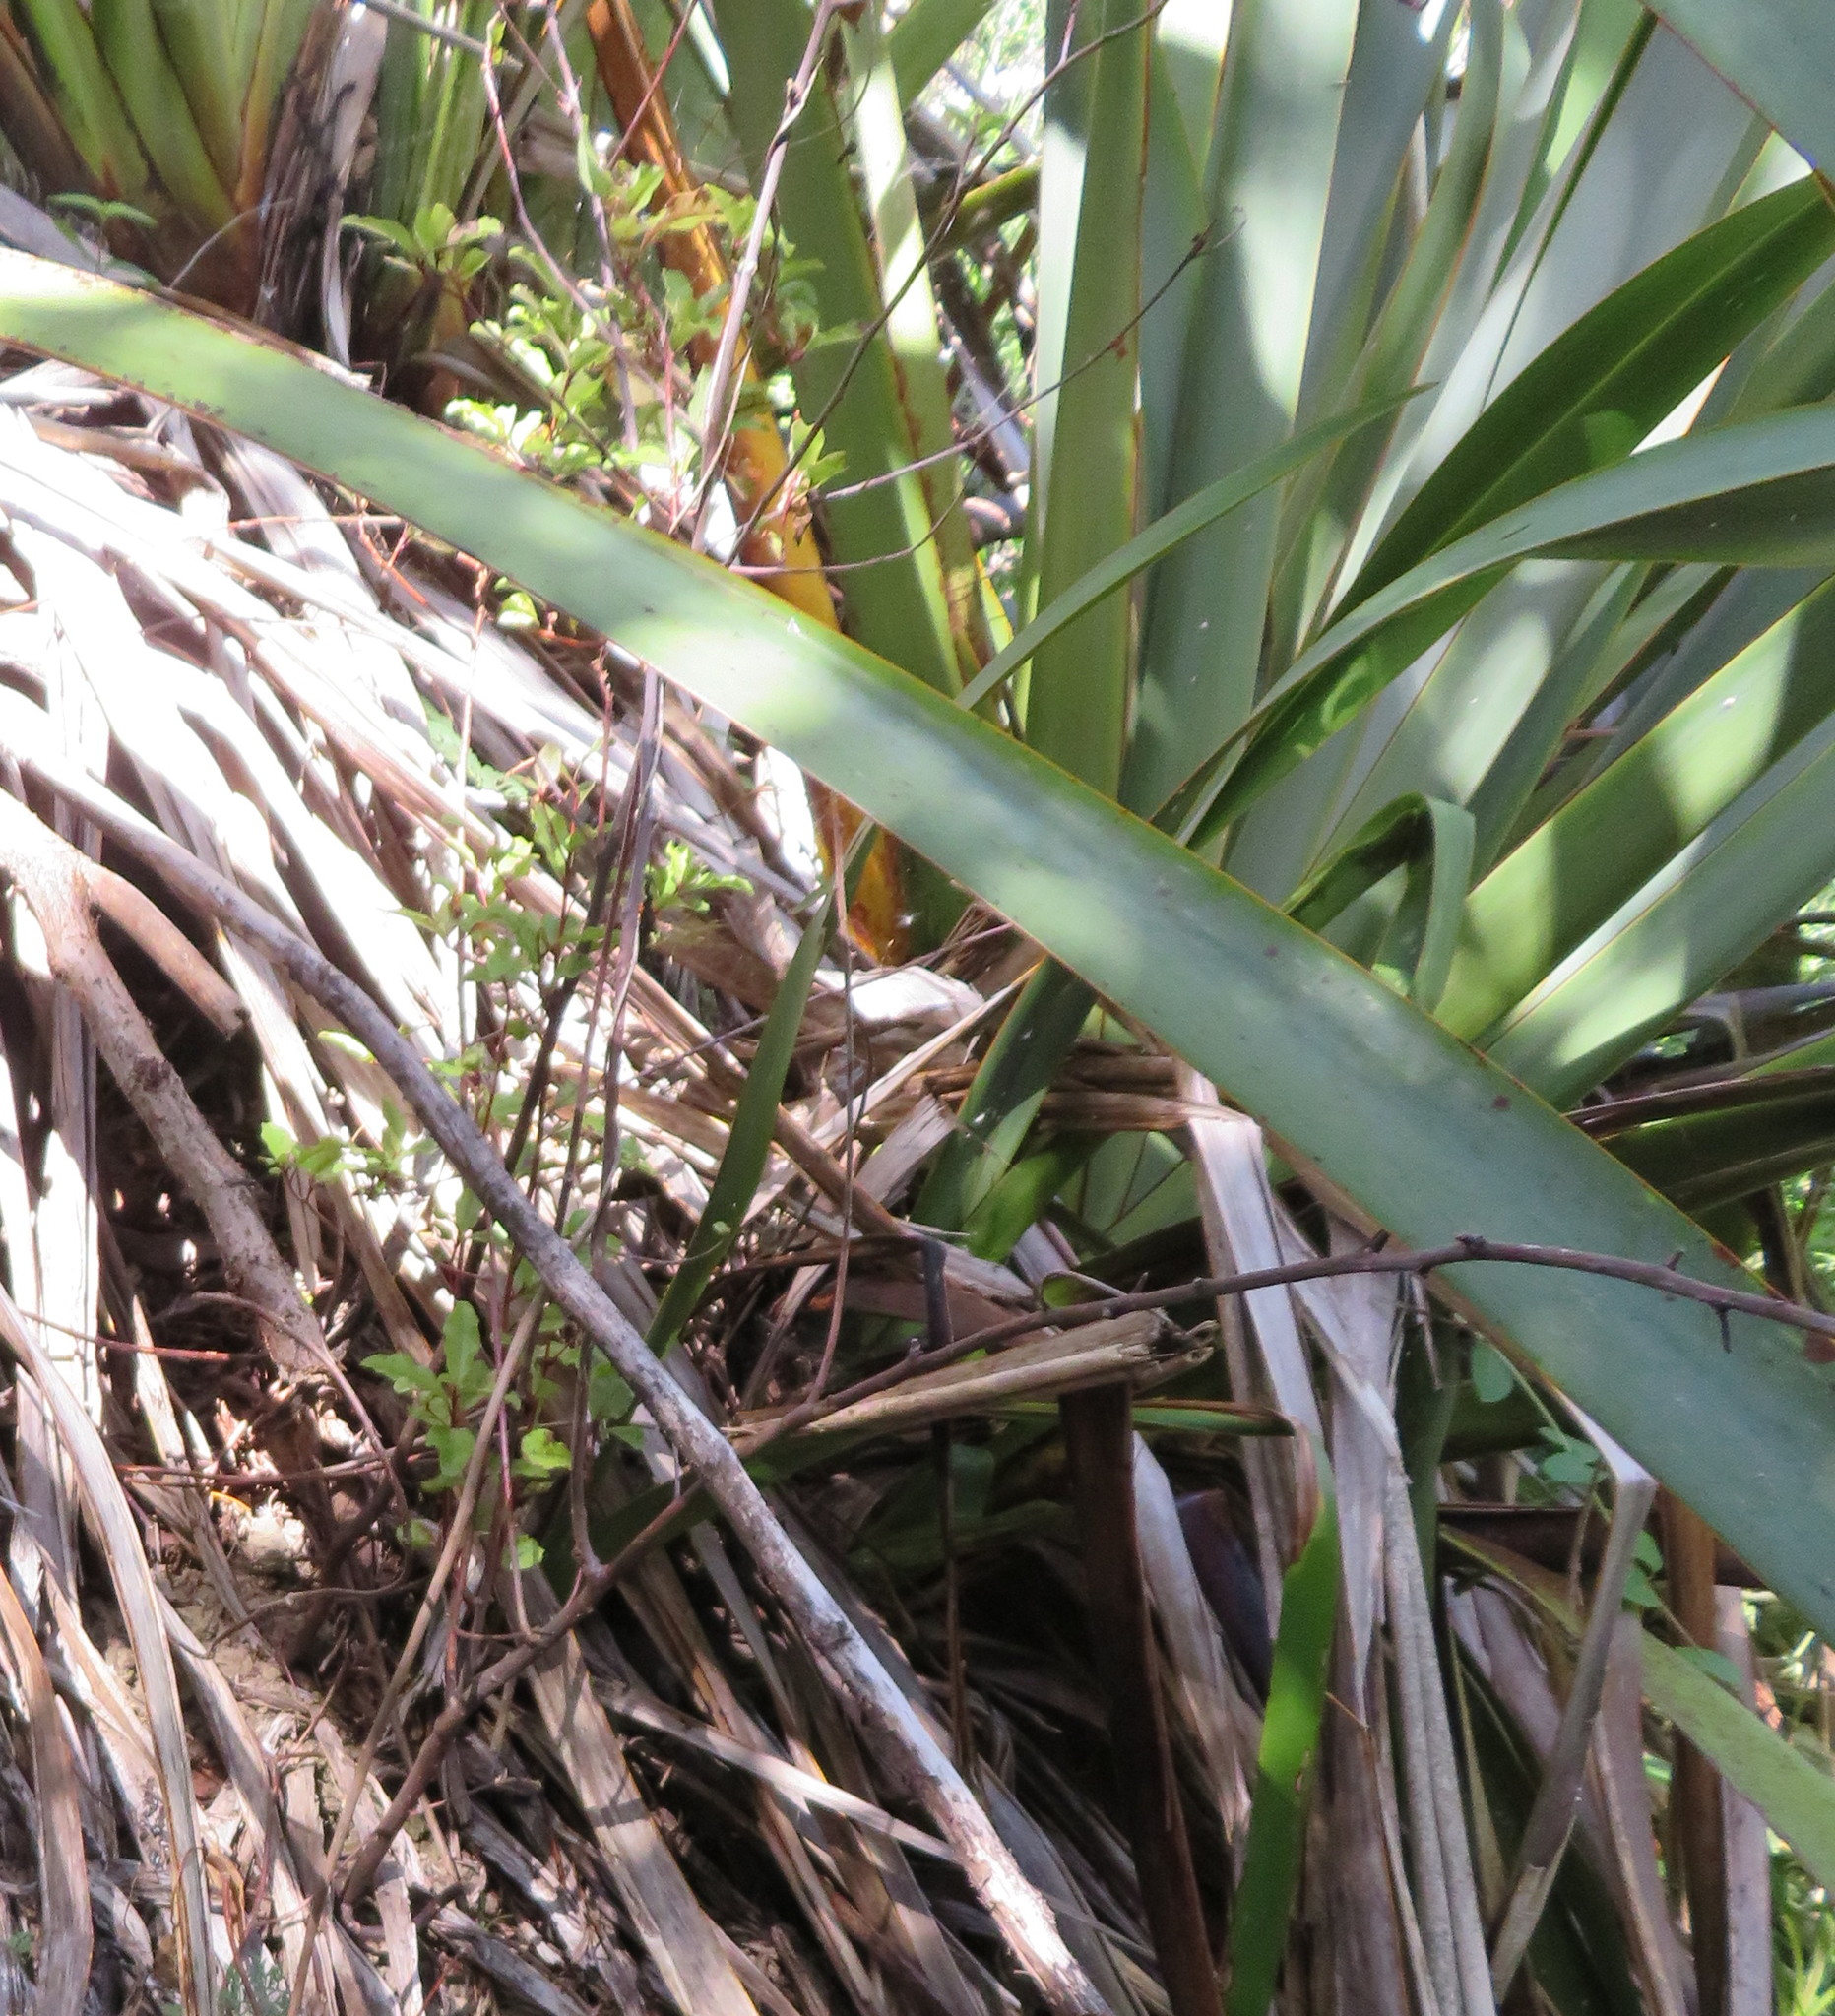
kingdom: Plantae
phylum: Tracheophyta
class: Magnoliopsida
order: Ericales
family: Primulaceae
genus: Myrsine
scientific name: Myrsine australis
